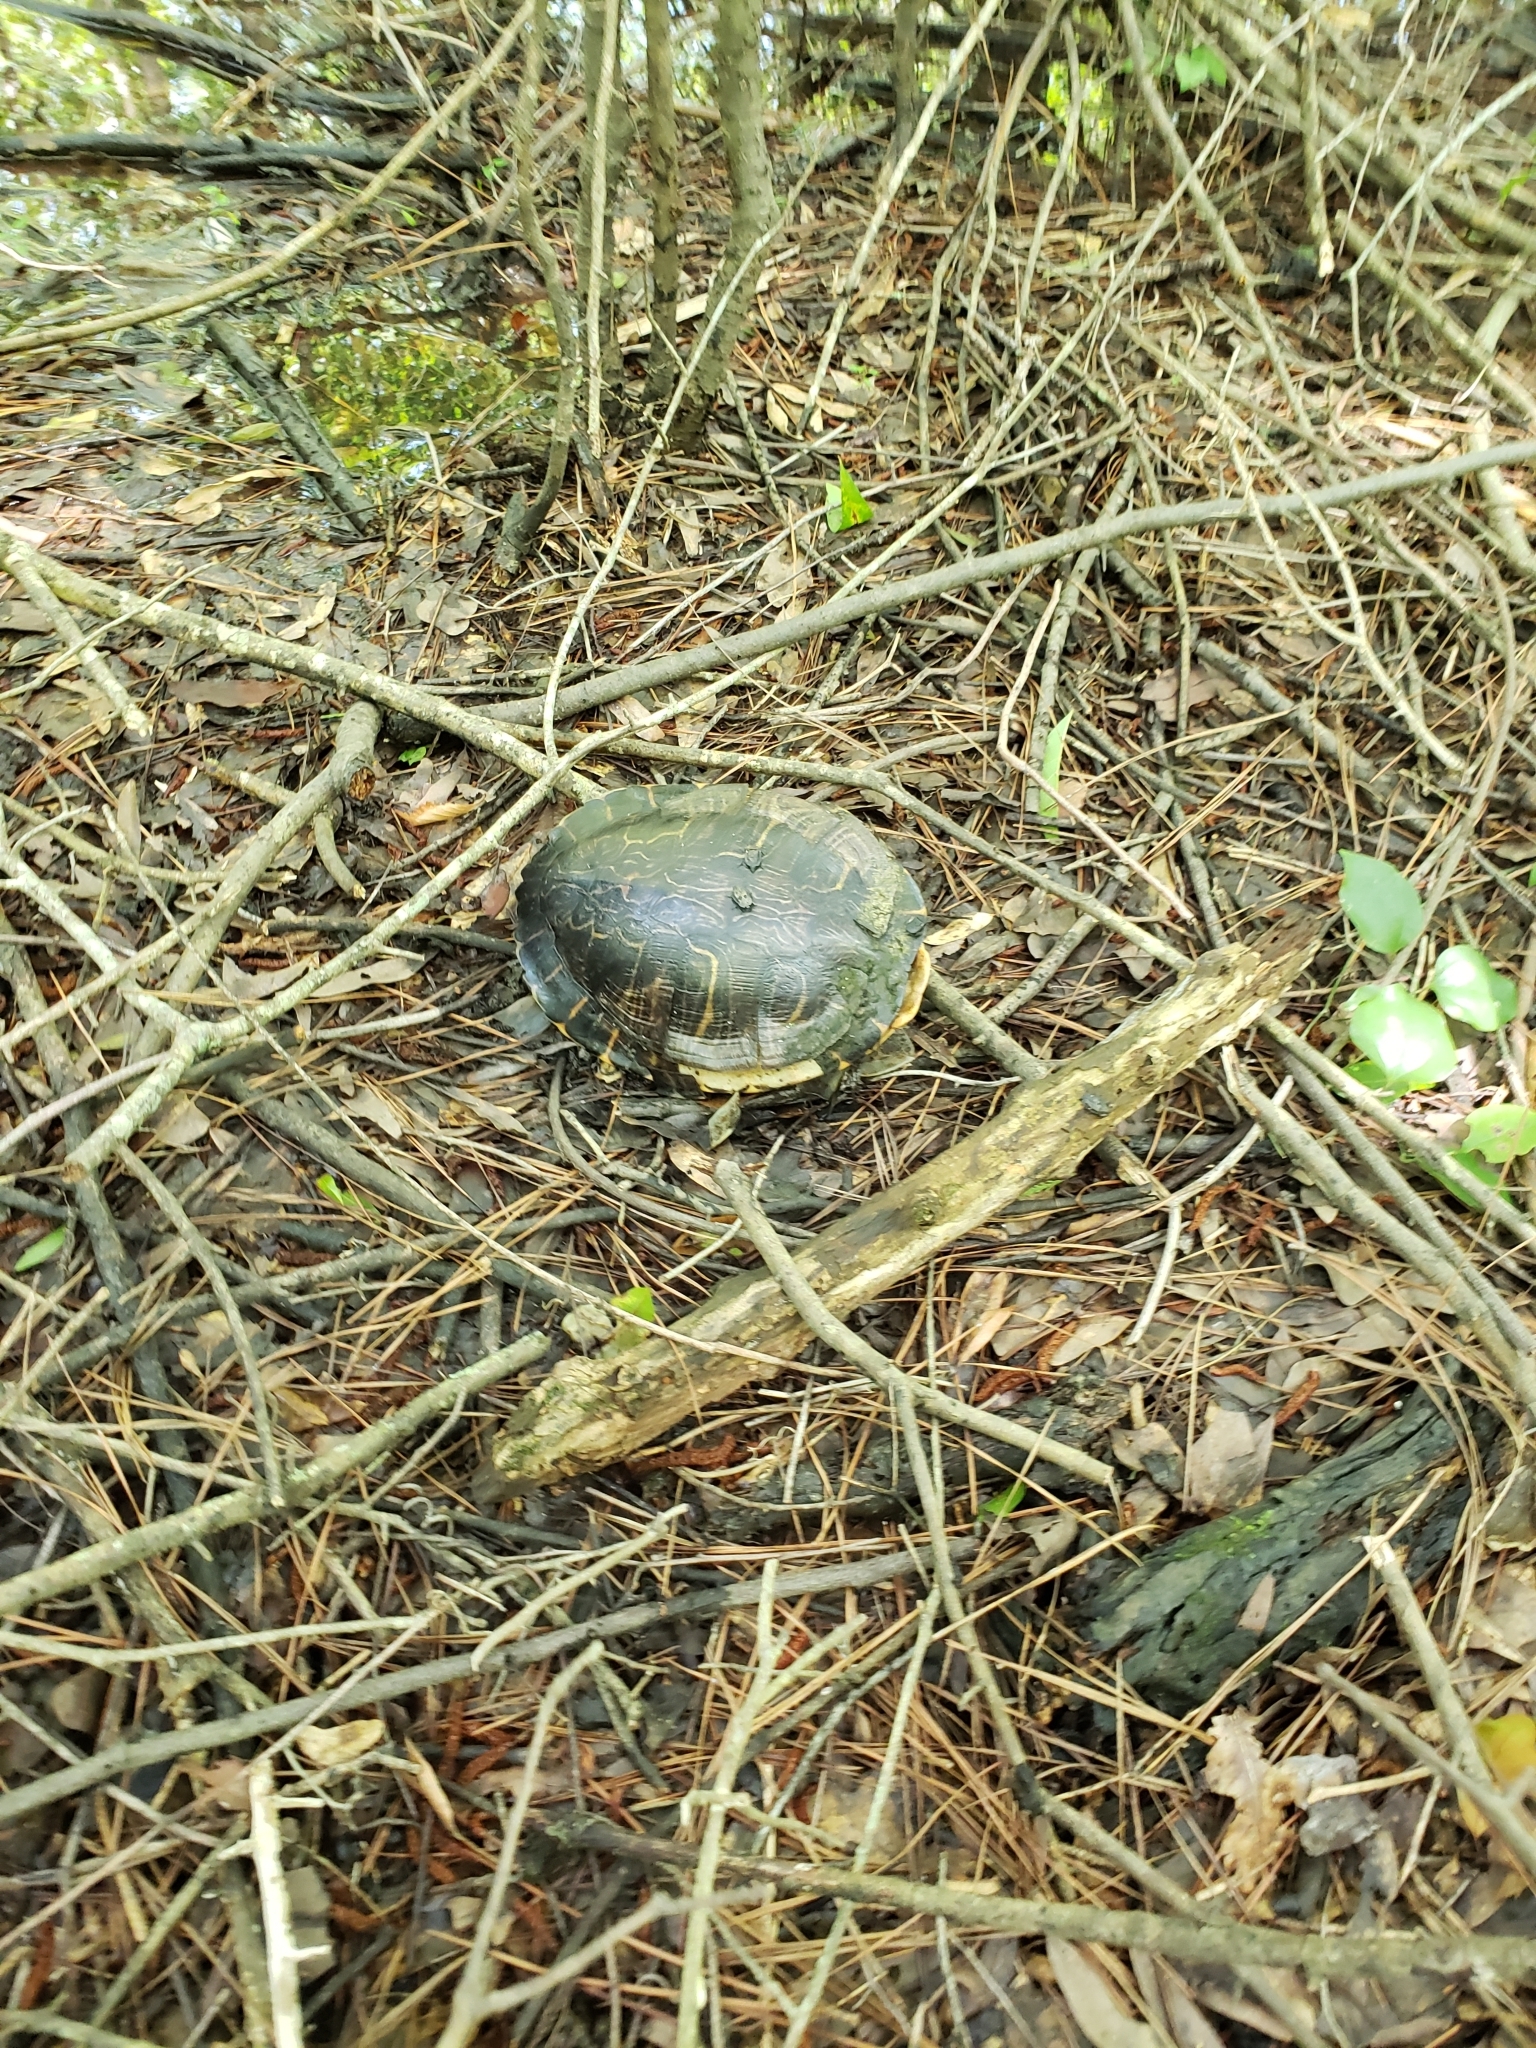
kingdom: Animalia
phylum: Chordata
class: Testudines
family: Emydidae
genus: Trachemys
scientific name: Trachemys scripta
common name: Slider
